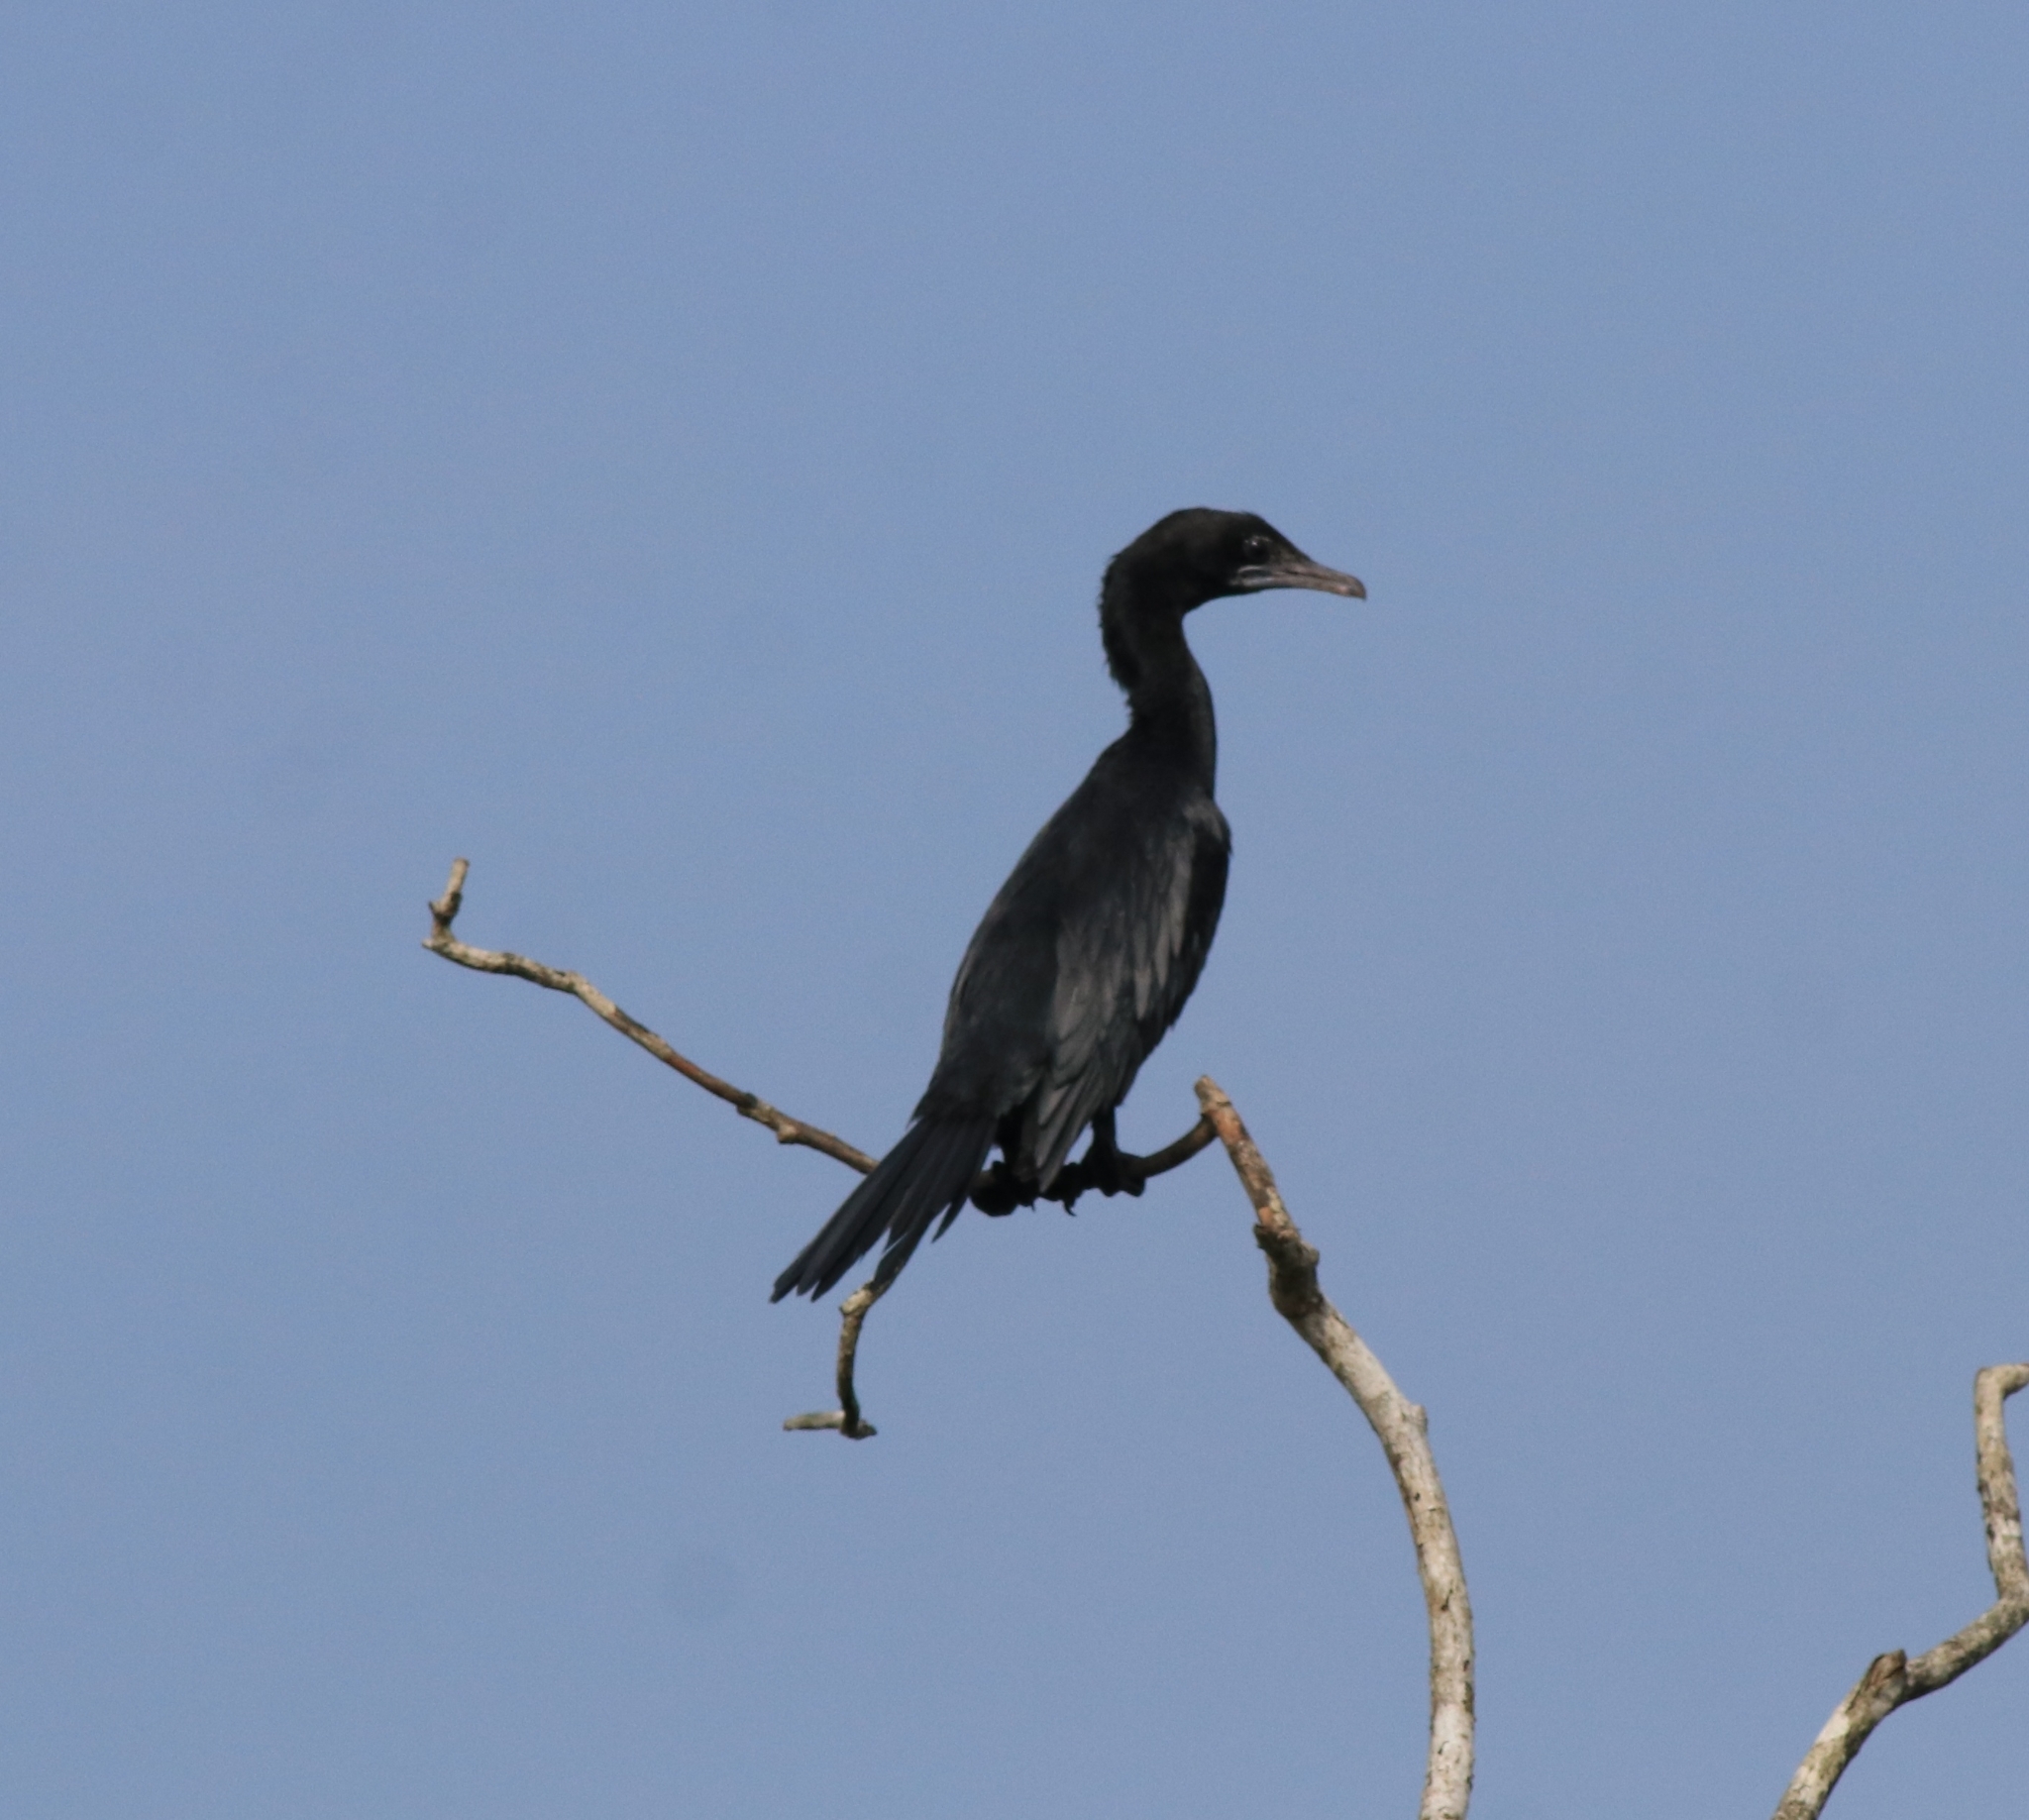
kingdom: Animalia
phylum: Chordata
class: Aves
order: Suliformes
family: Phalacrocoracidae
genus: Microcarbo
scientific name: Microcarbo niger
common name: Little cormorant
